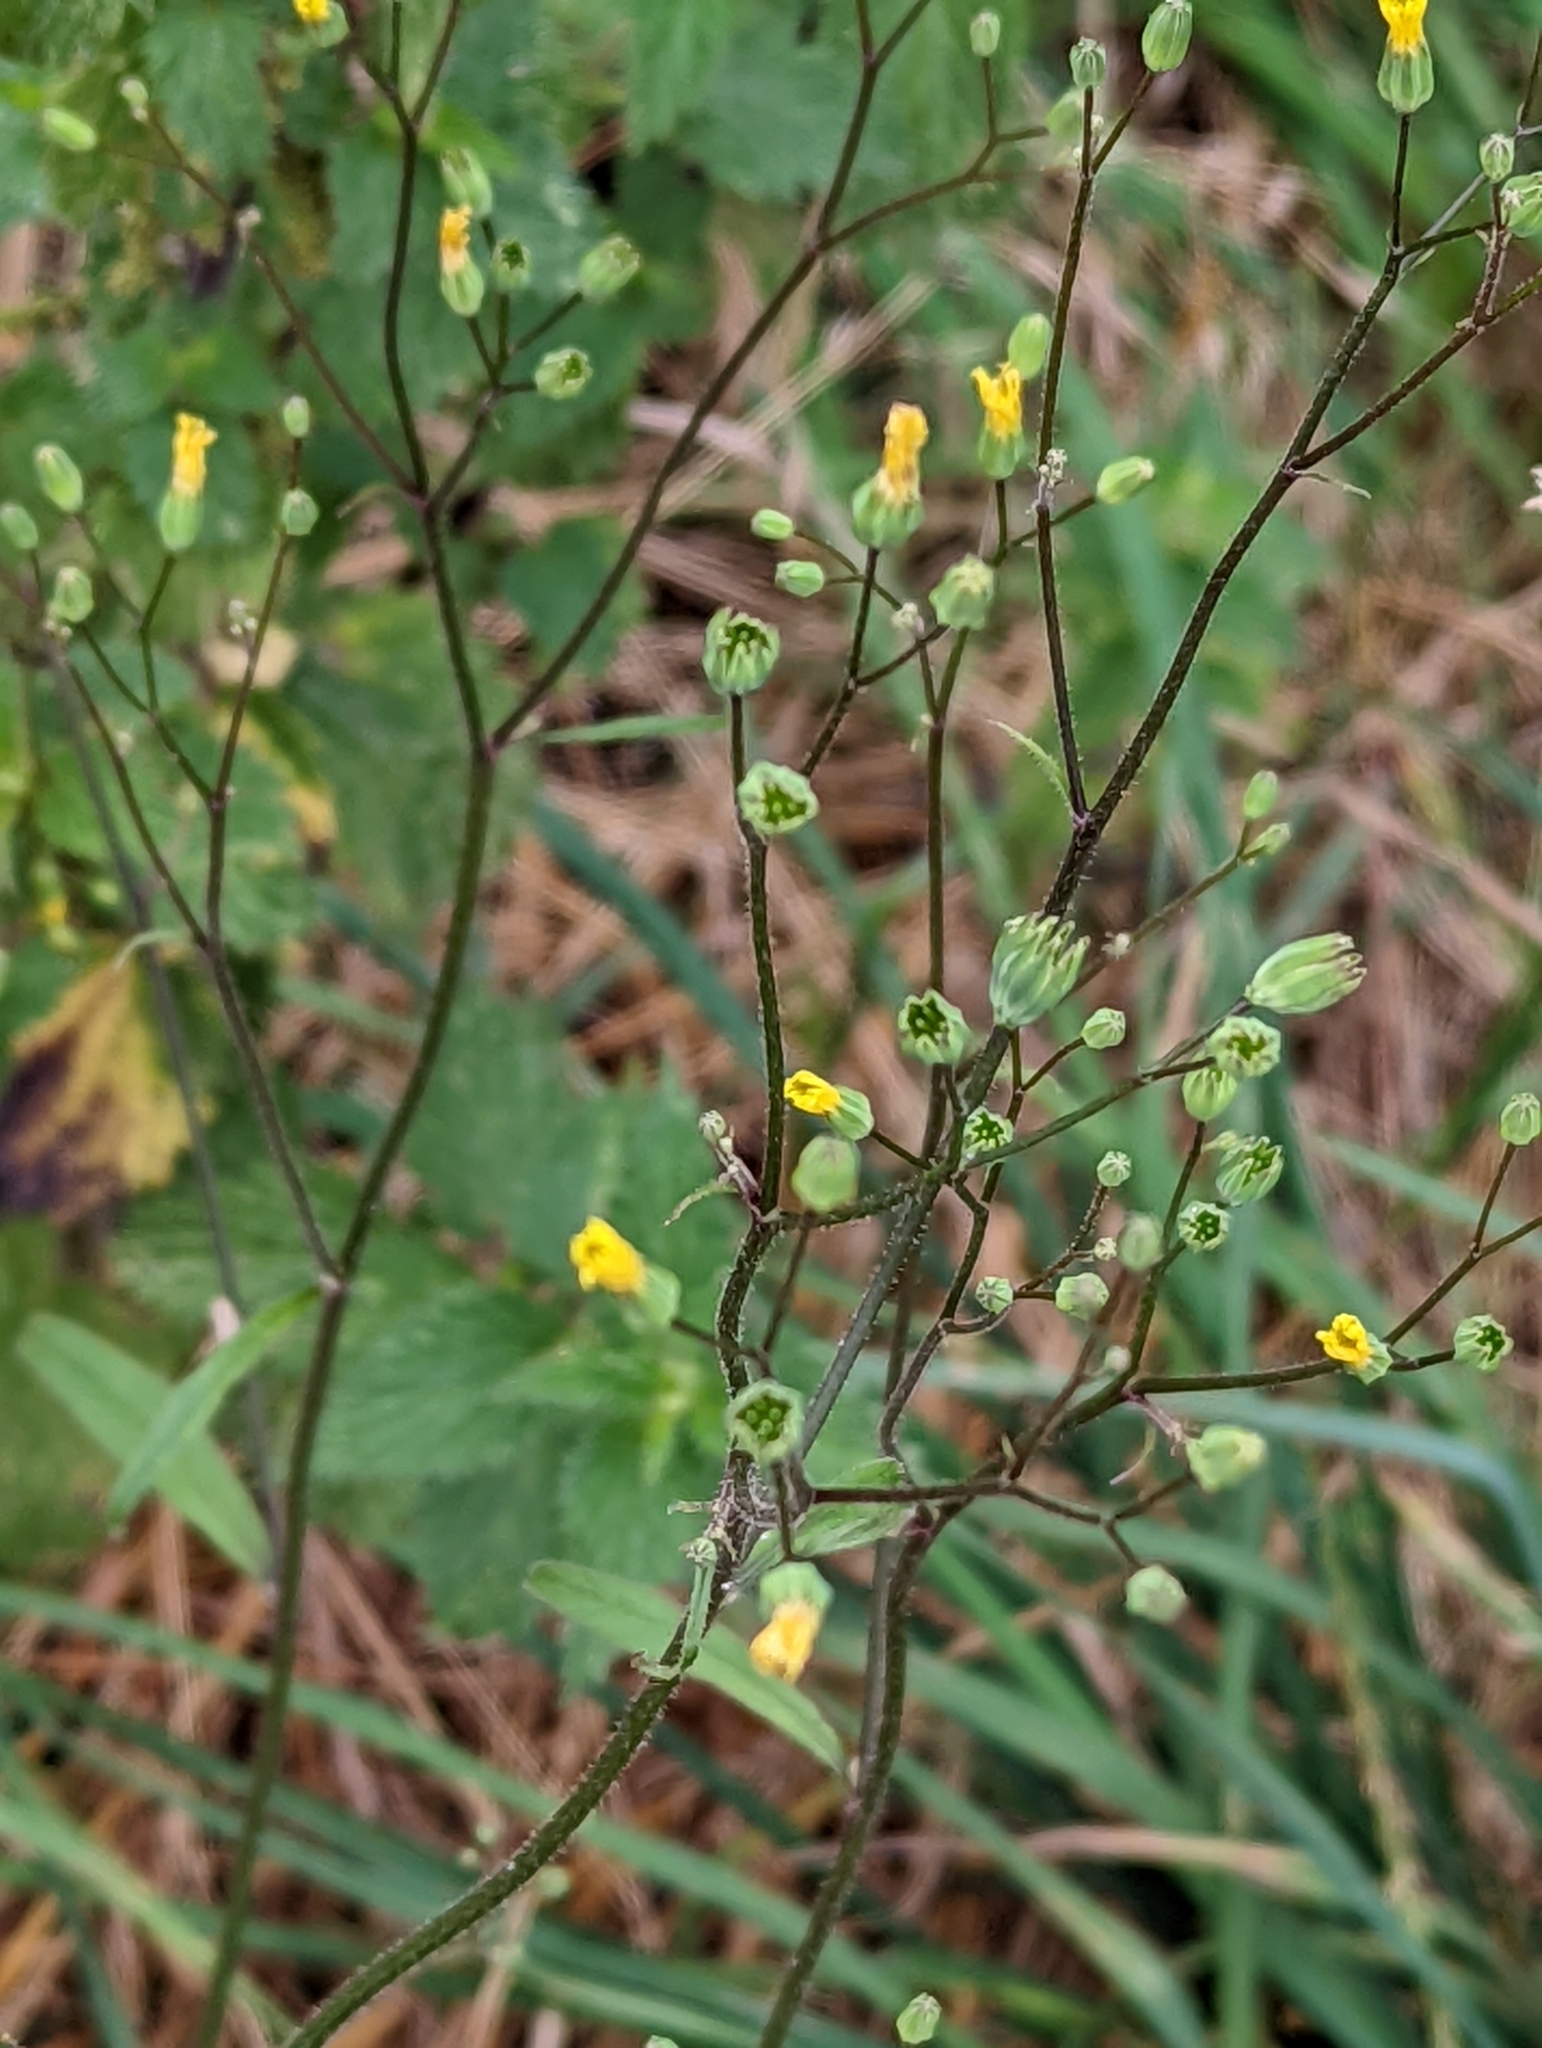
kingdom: Plantae
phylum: Tracheophyta
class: Magnoliopsida
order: Asterales
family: Asteraceae
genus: Lapsana
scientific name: Lapsana communis
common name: Nipplewort
